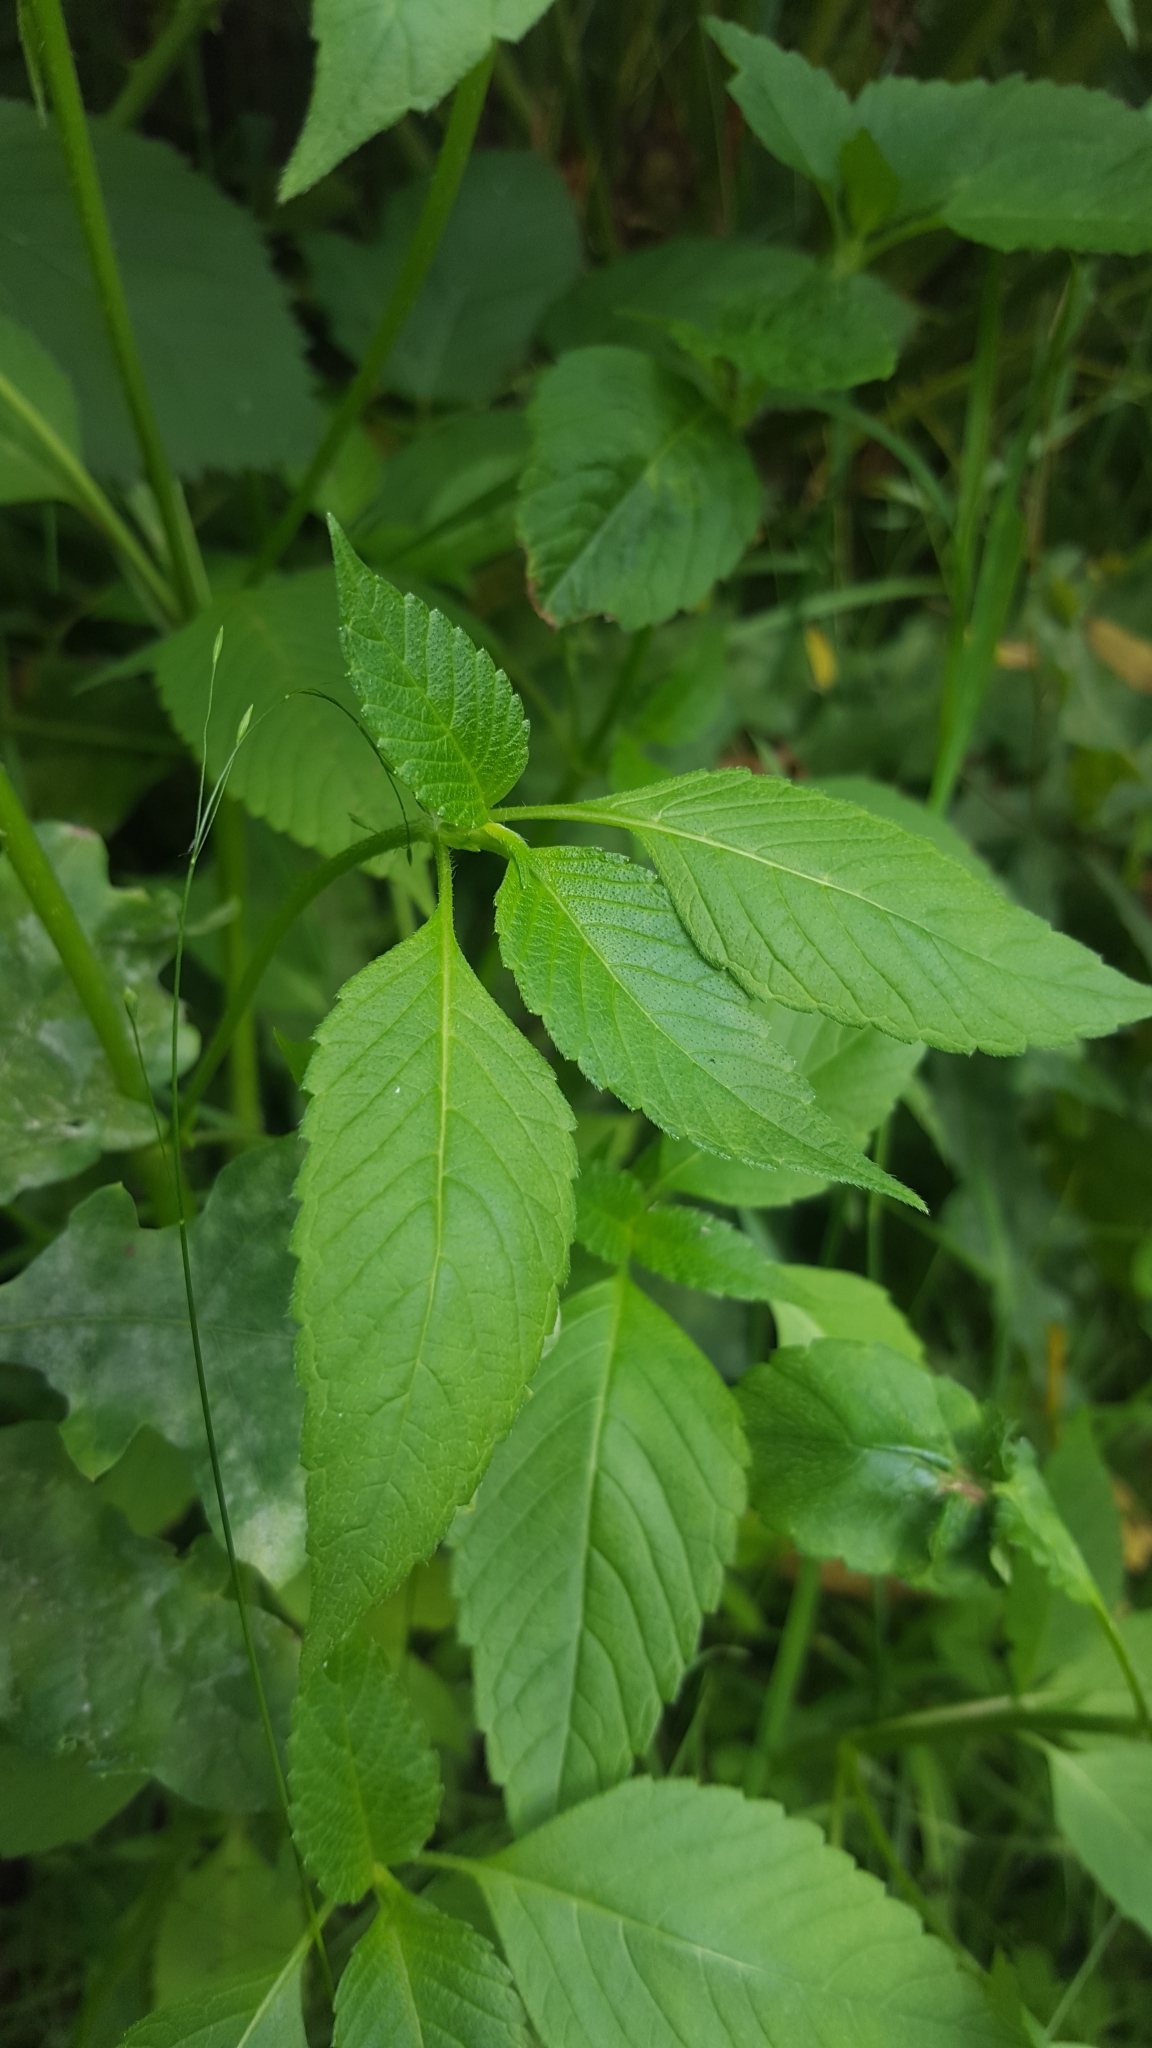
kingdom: Plantae
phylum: Tracheophyta
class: Magnoliopsida
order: Lamiales
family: Lamiaceae
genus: Galeopsis
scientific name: Galeopsis tetrahit
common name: Common hemp-nettle
